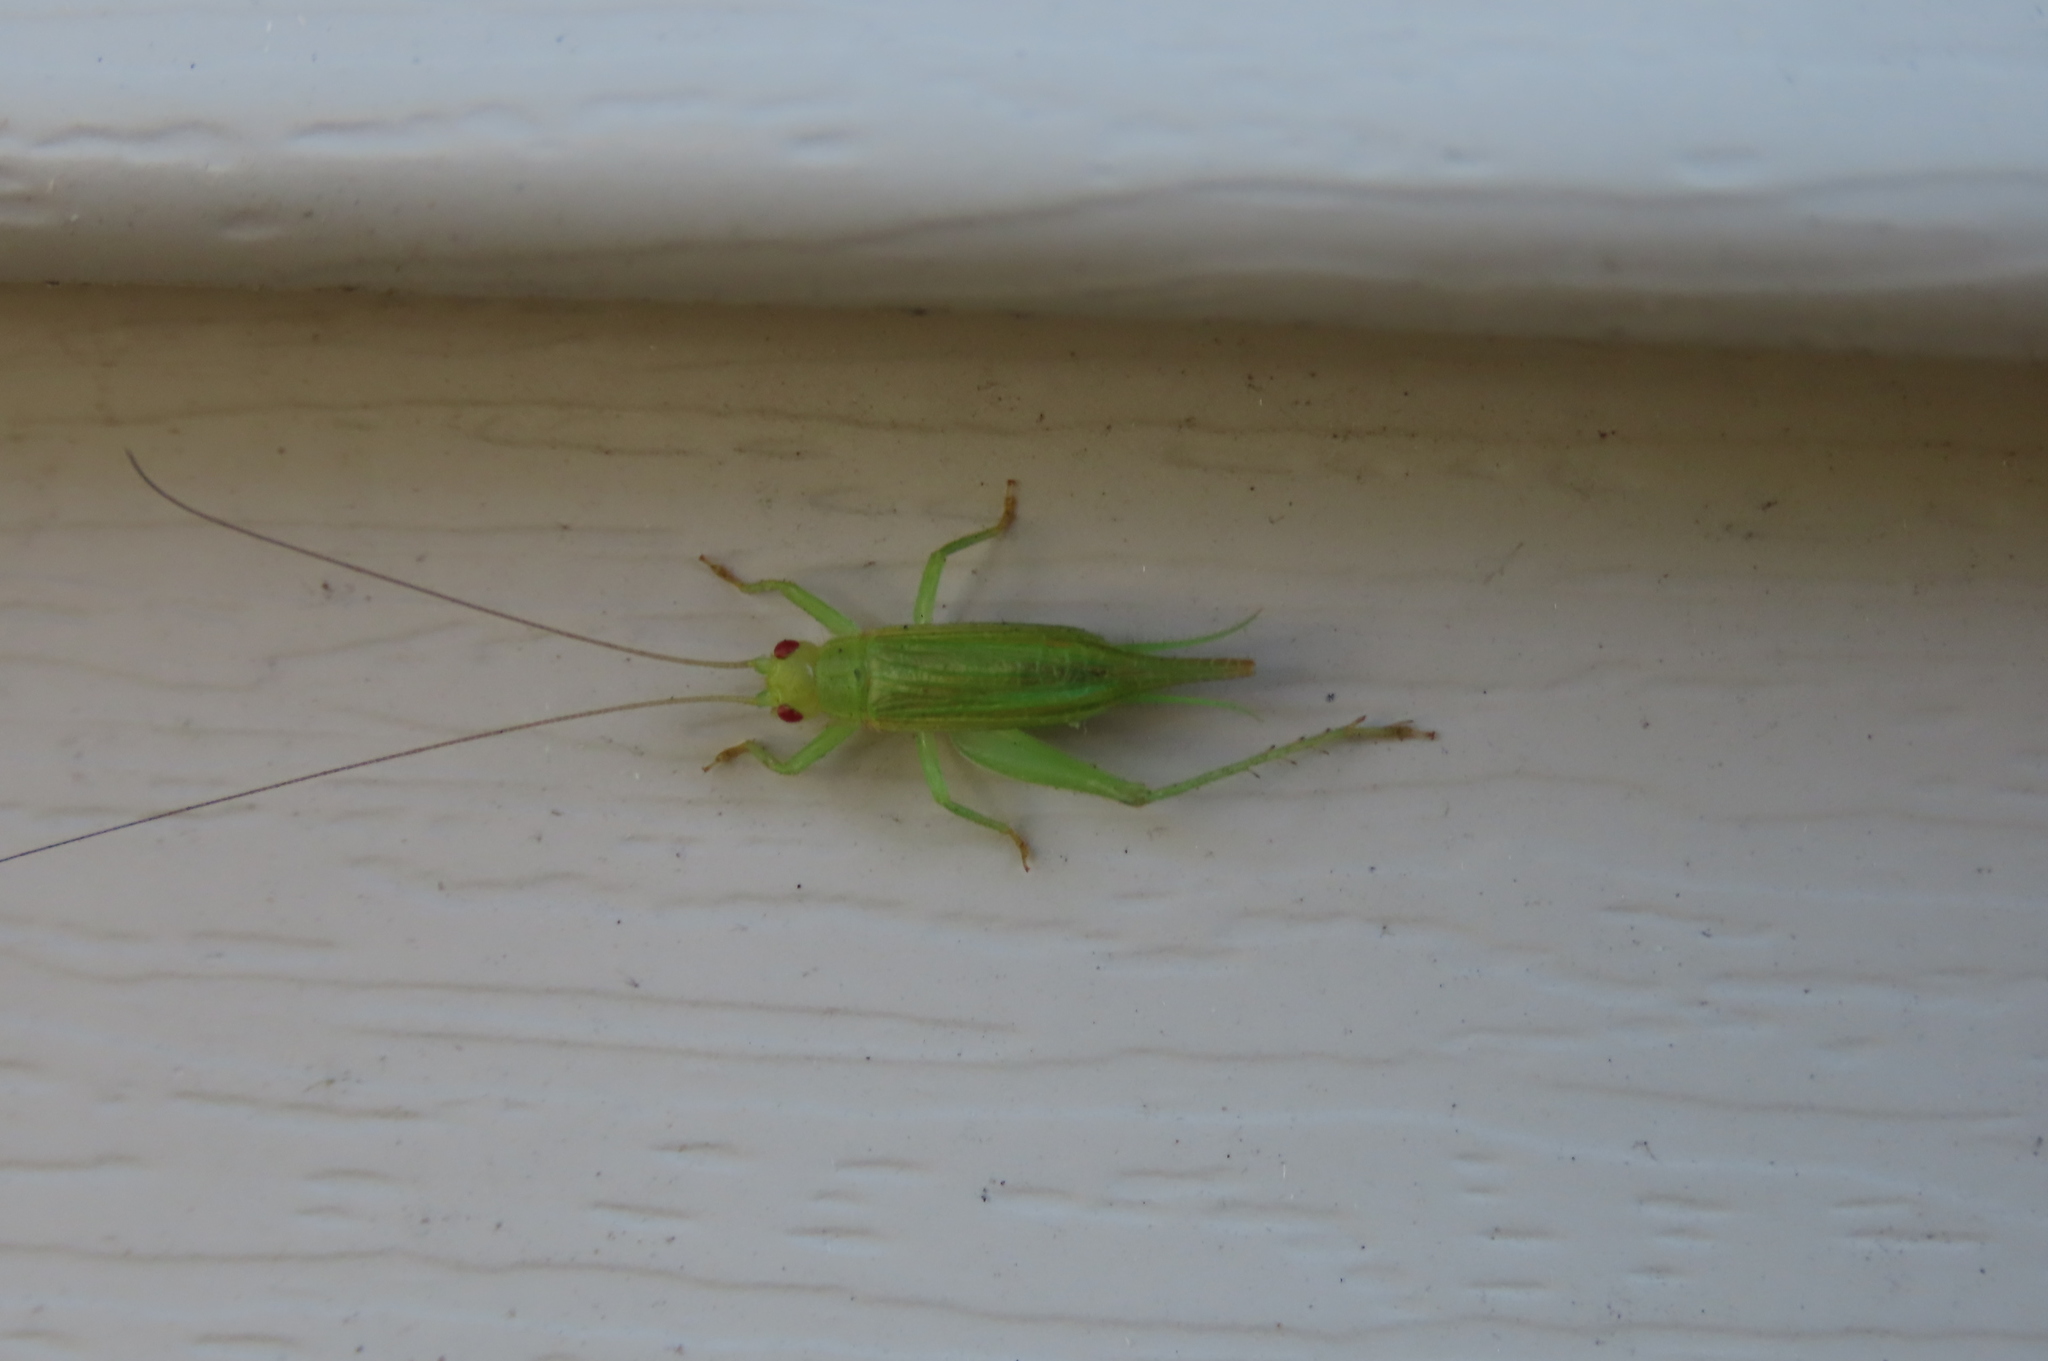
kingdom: Animalia
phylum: Arthropoda
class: Insecta
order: Orthoptera
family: Trigonidiidae
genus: Cyrtoxipha
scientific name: Cyrtoxipha columbiana
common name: Columbian trig
